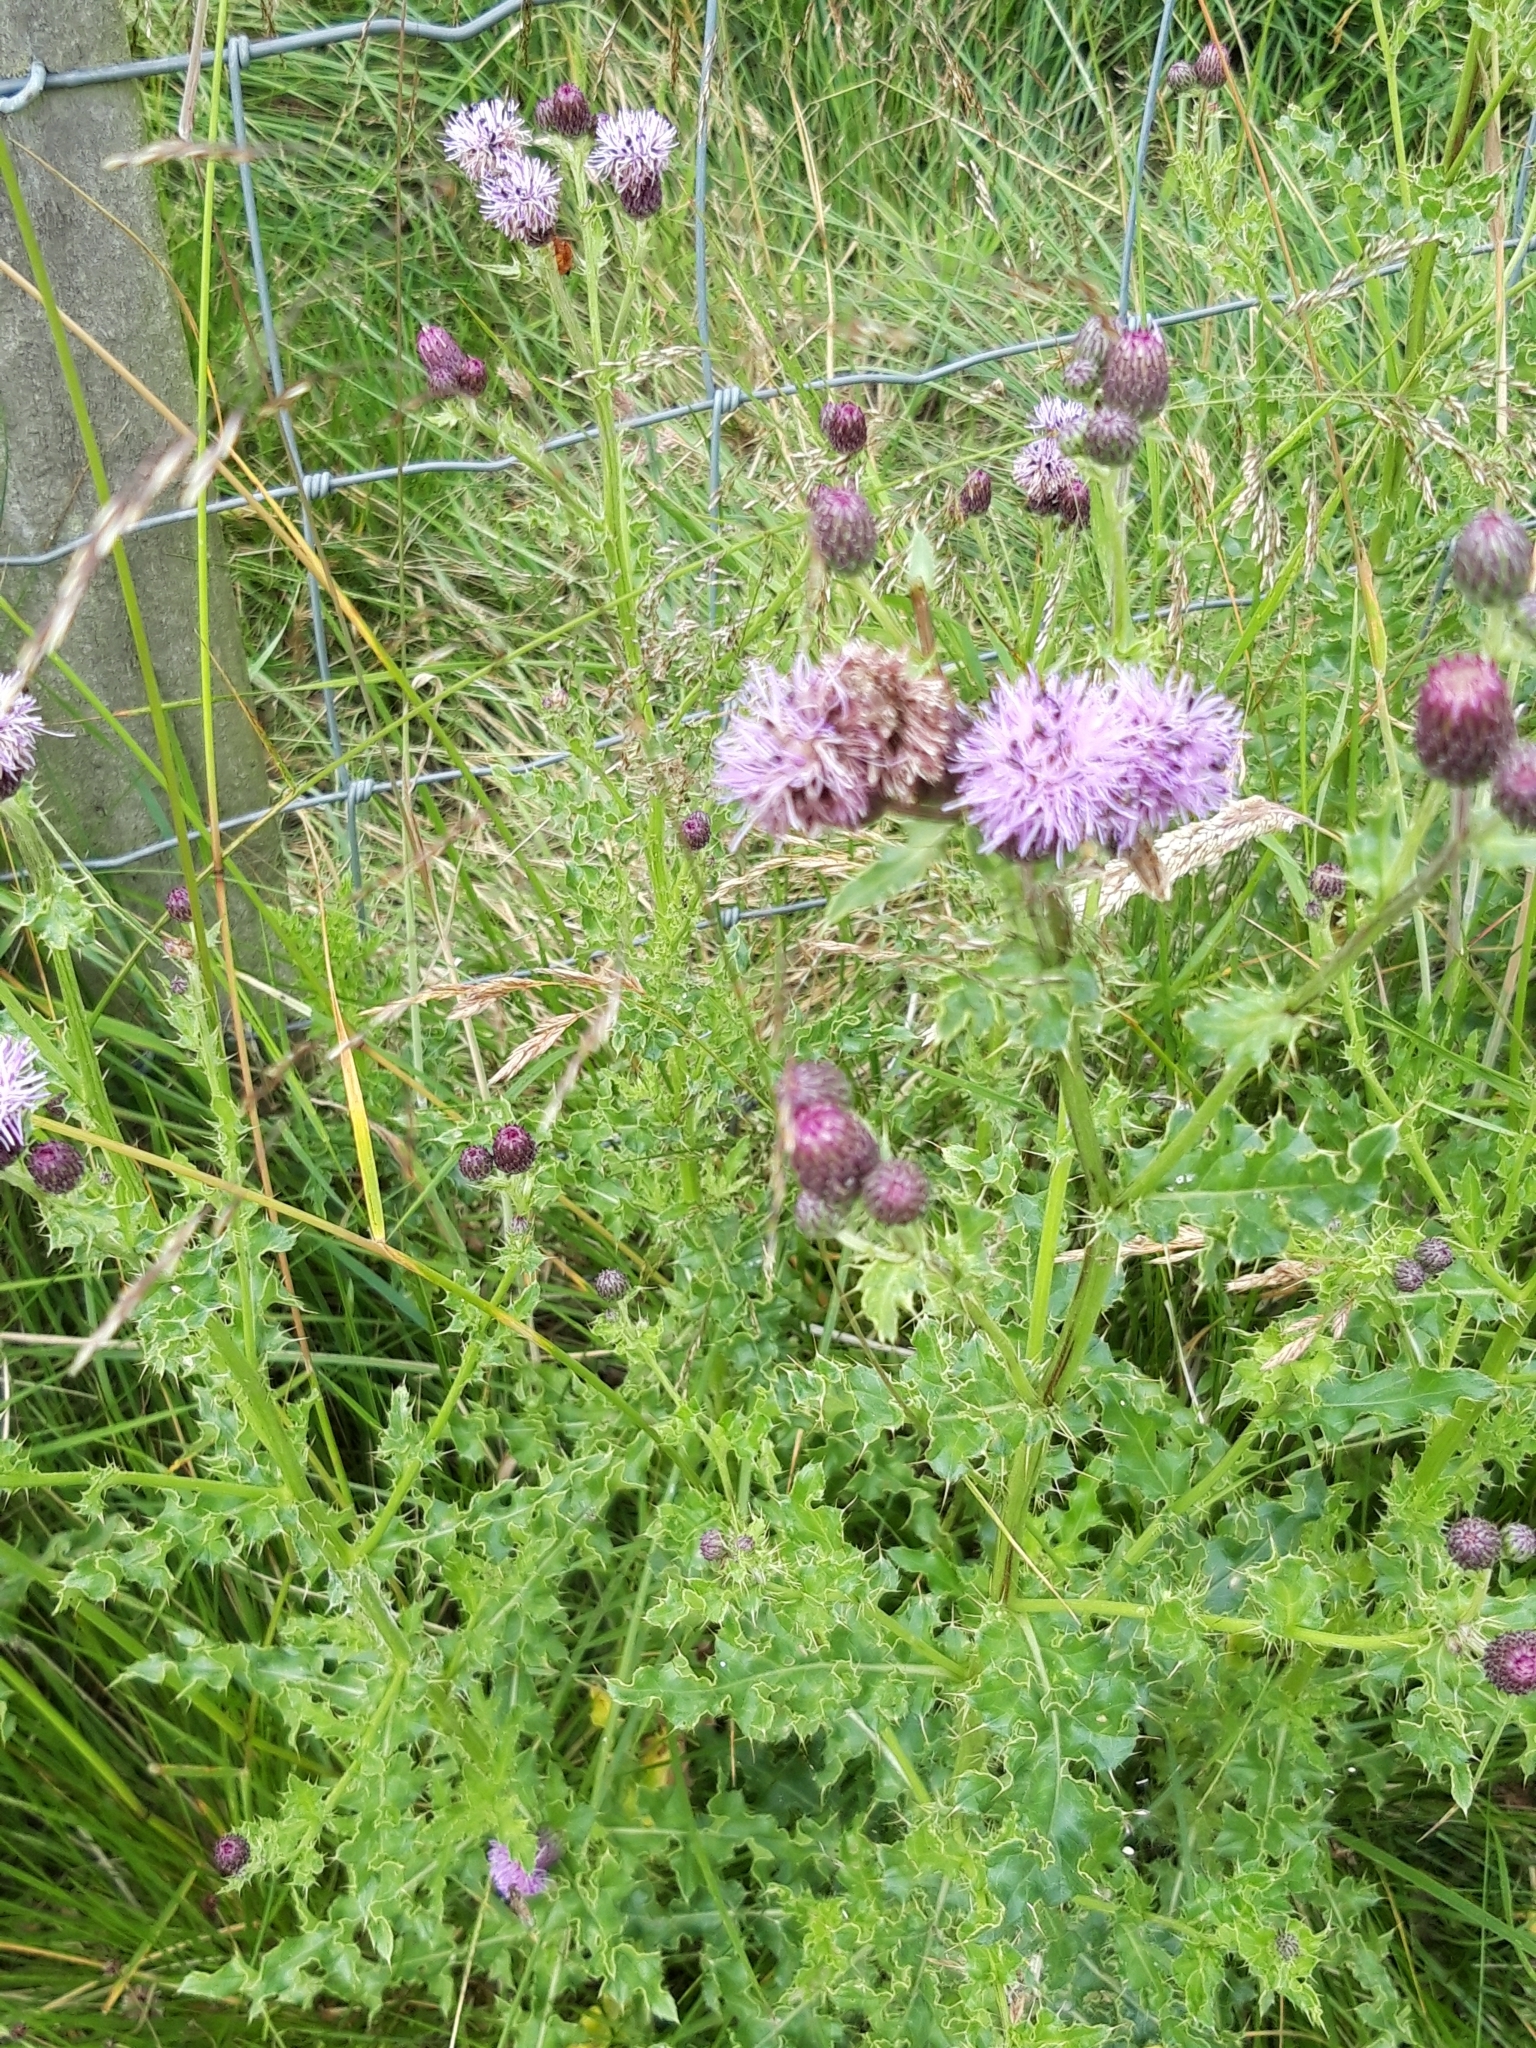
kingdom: Plantae
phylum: Tracheophyta
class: Magnoliopsida
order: Asterales
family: Asteraceae
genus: Cirsium
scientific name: Cirsium arvense
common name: Creeping thistle
